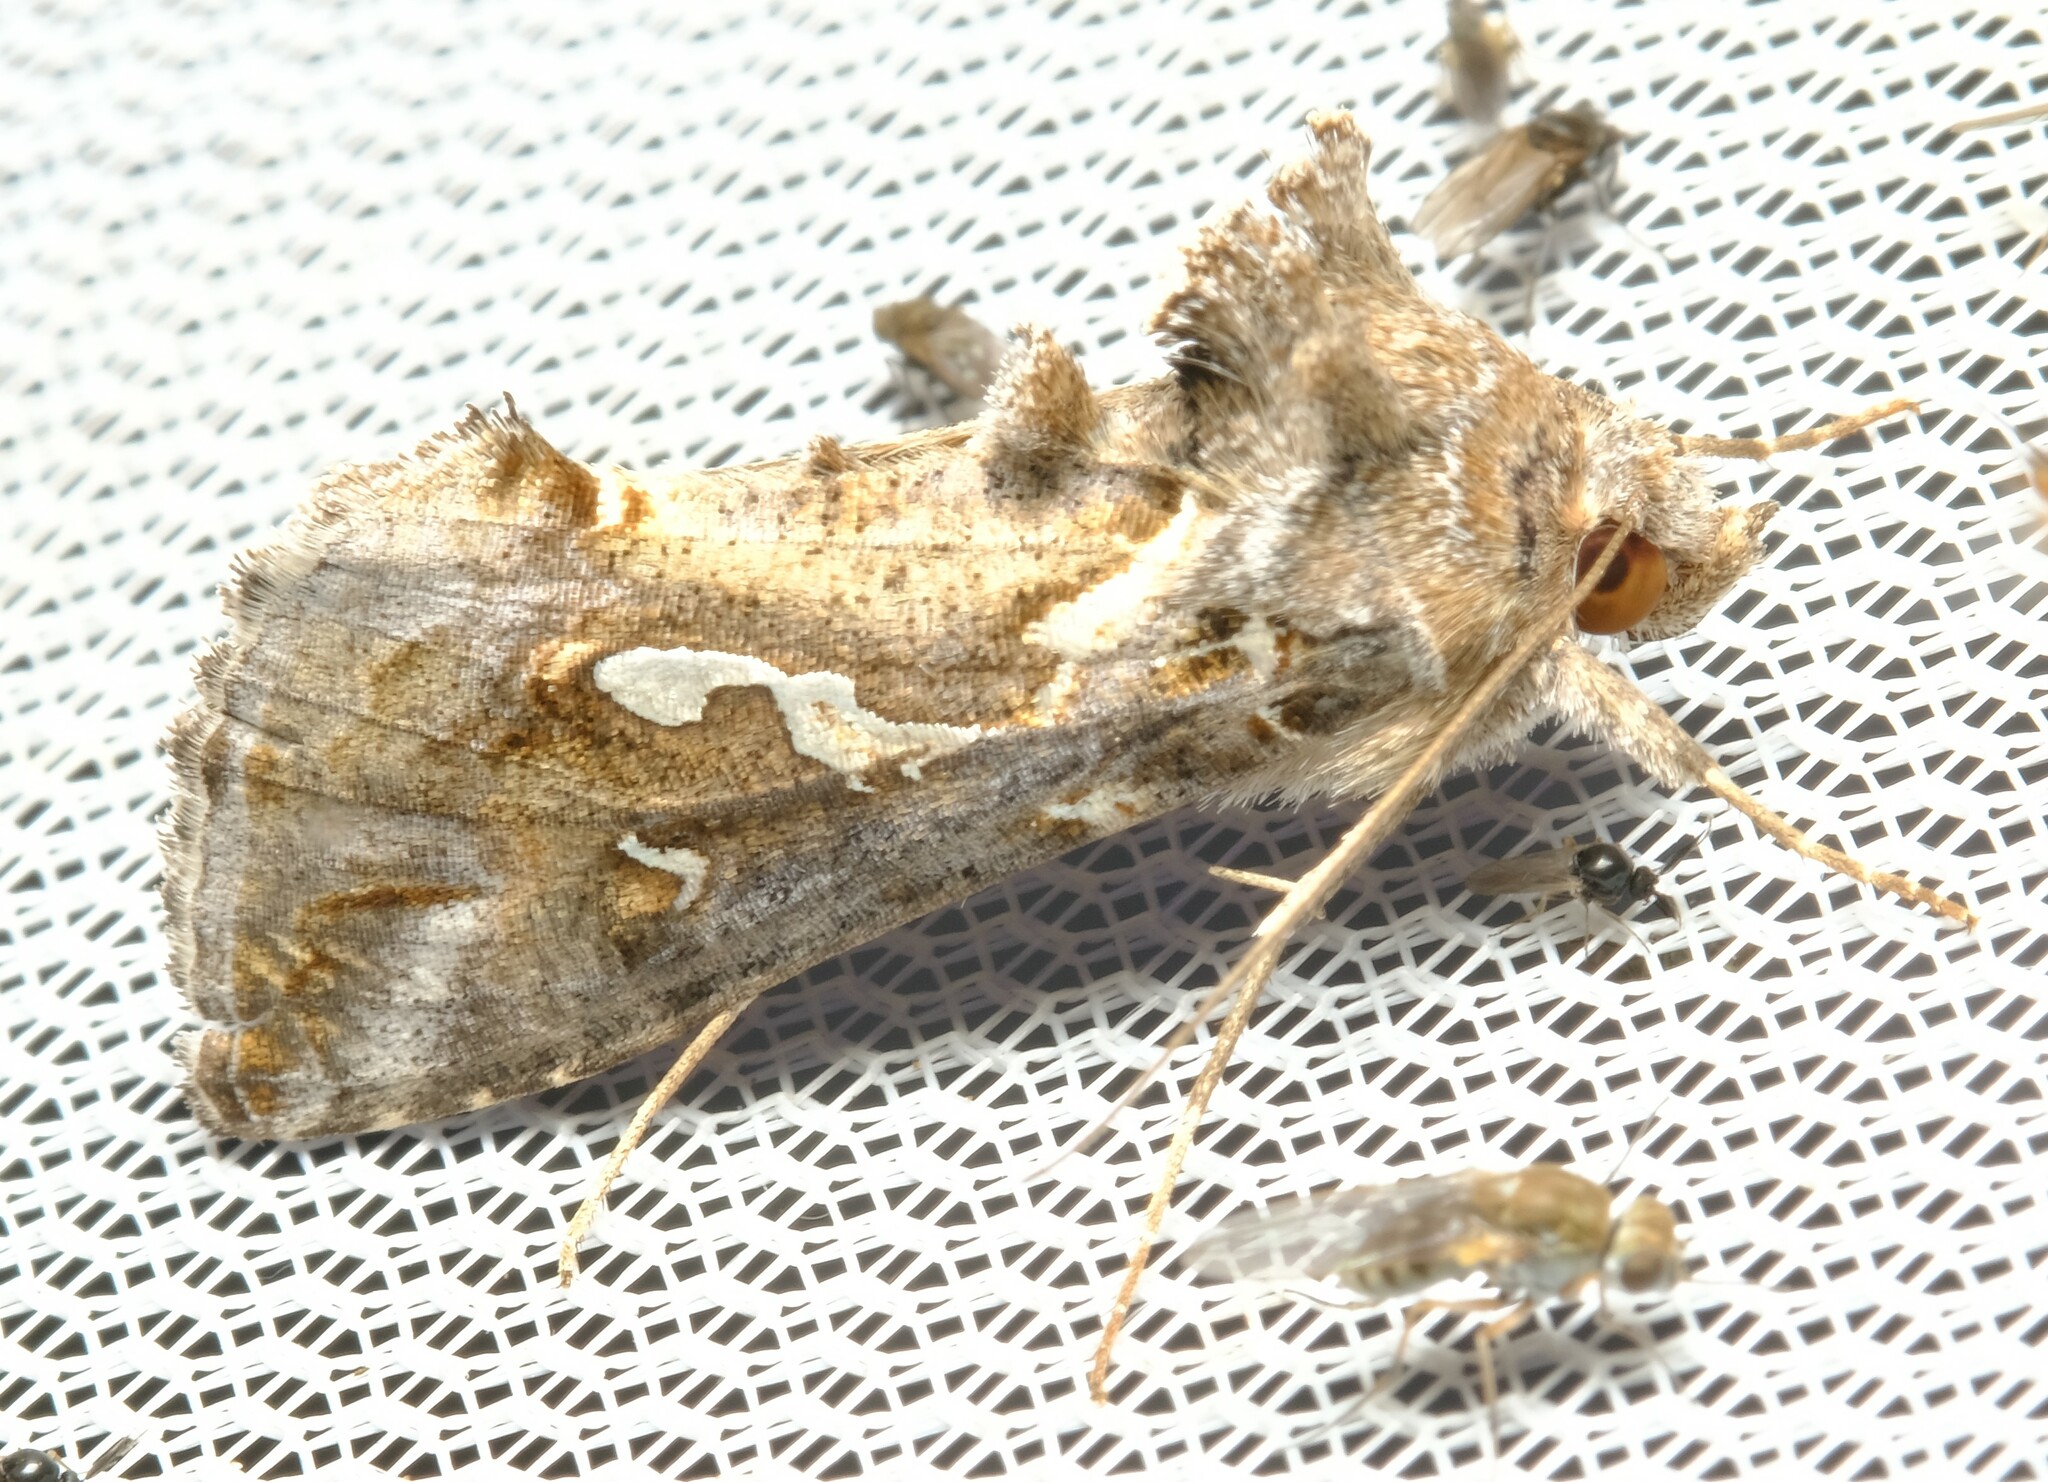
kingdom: Animalia
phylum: Arthropoda
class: Insecta
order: Lepidoptera
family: Noctuidae
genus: Chrysodeixis
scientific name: Chrysodeixis argentifera
